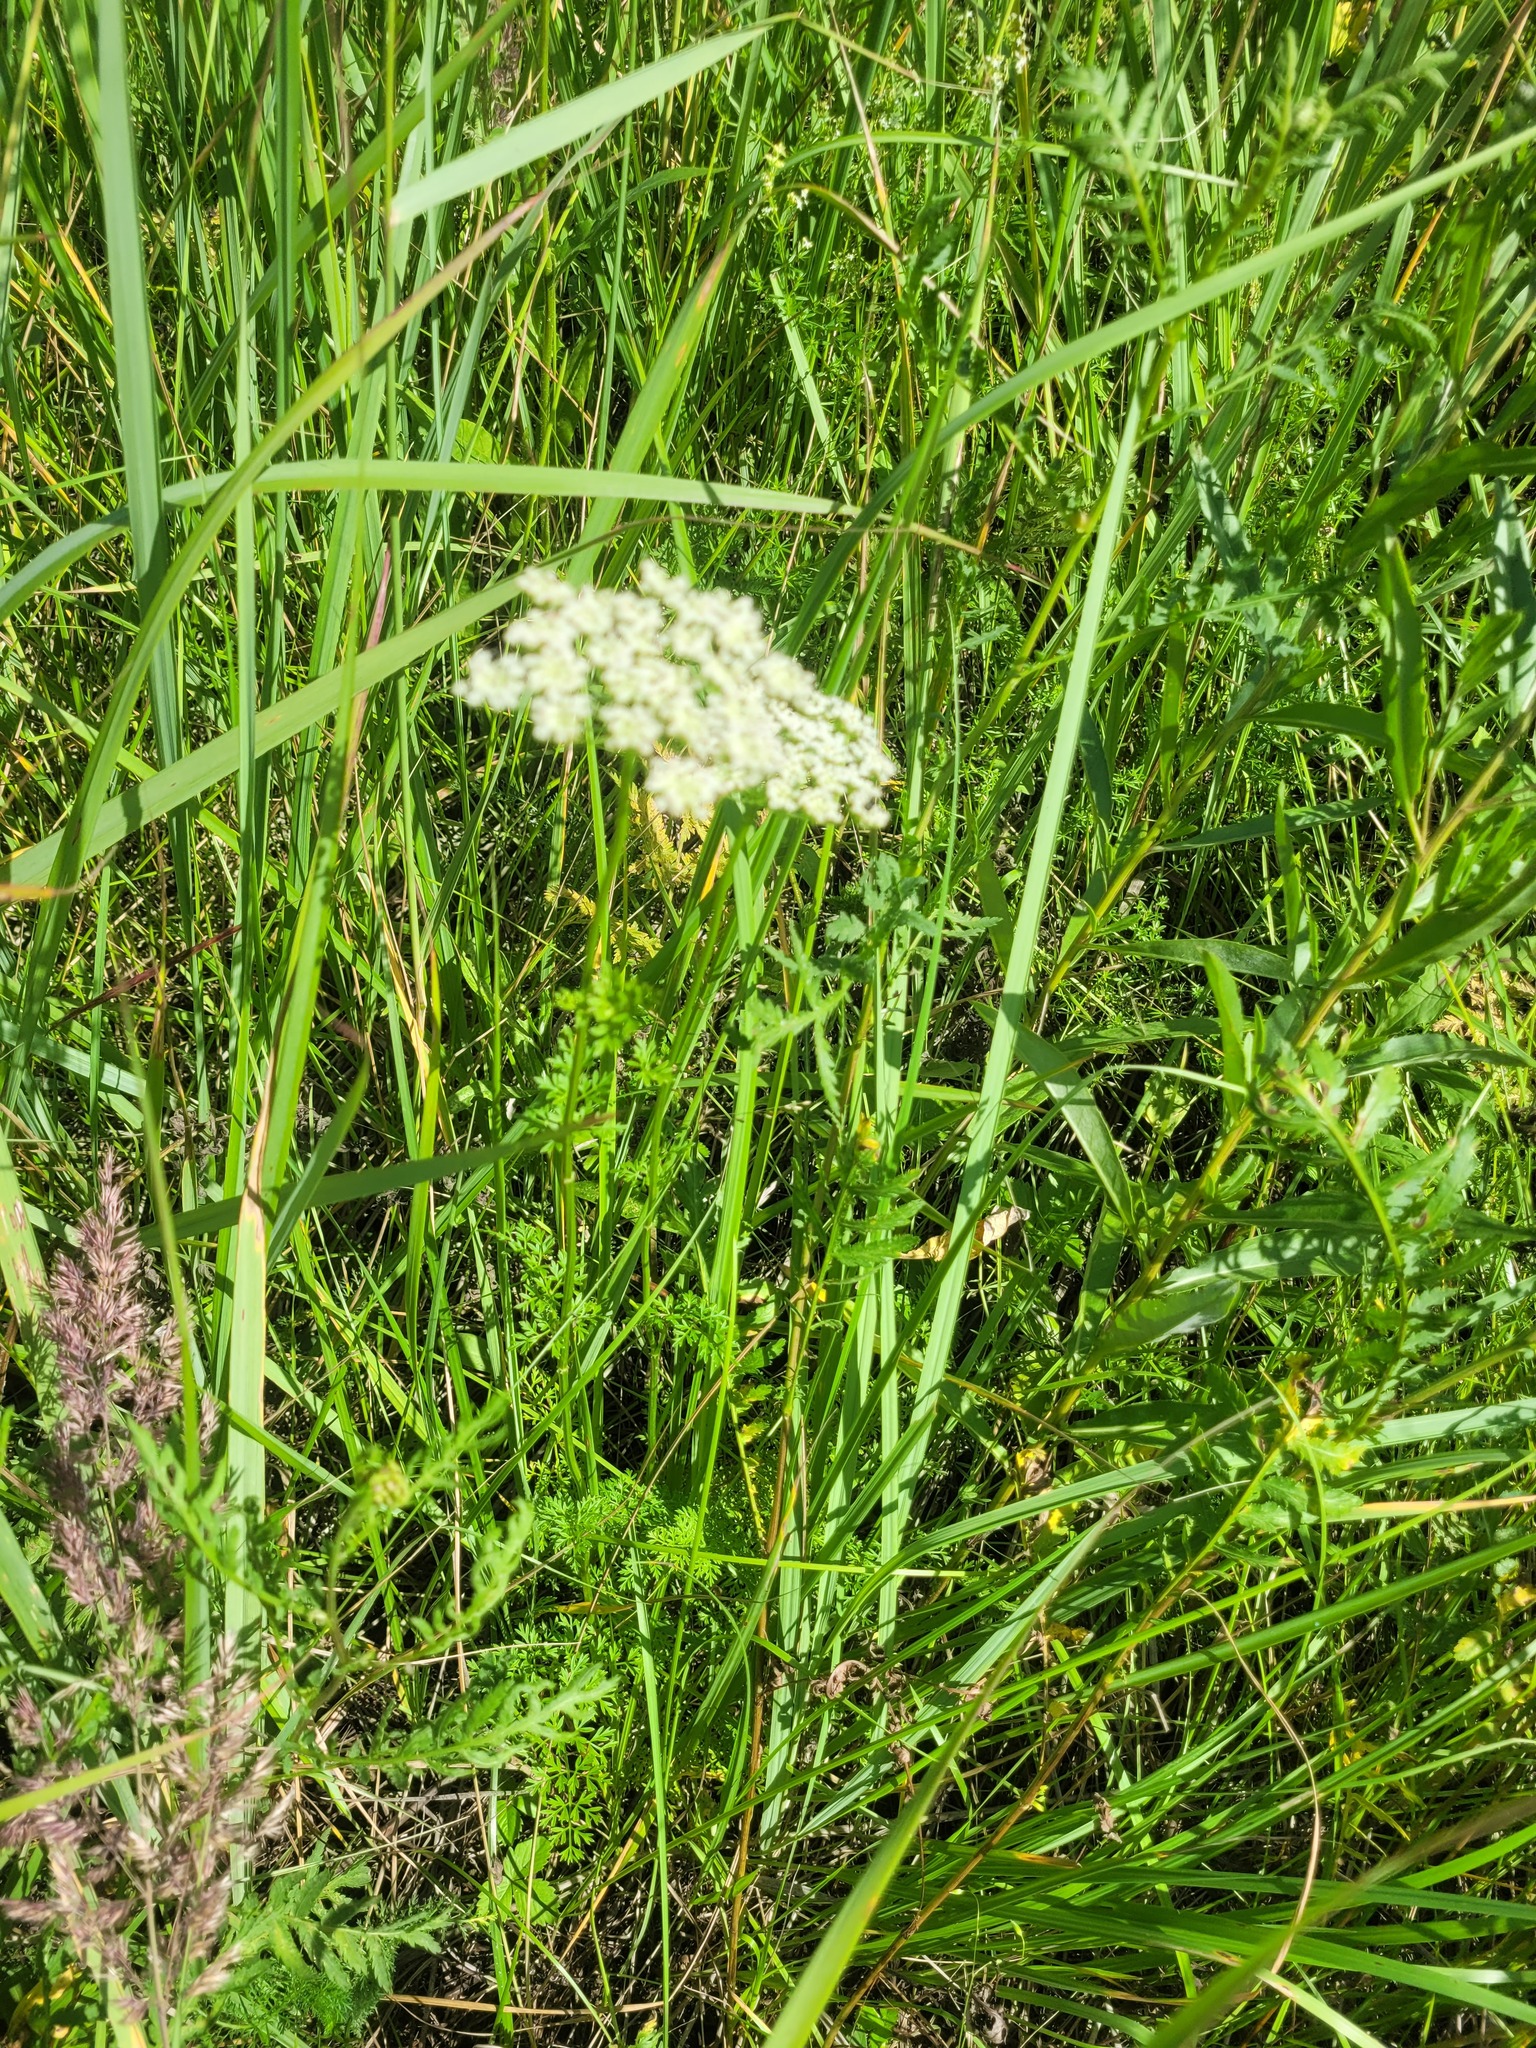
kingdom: Plantae
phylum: Tracheophyta
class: Magnoliopsida
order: Apiales
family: Apiaceae
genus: Selinum
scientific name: Selinum carvifolia
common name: Cambridge milk-parsley
